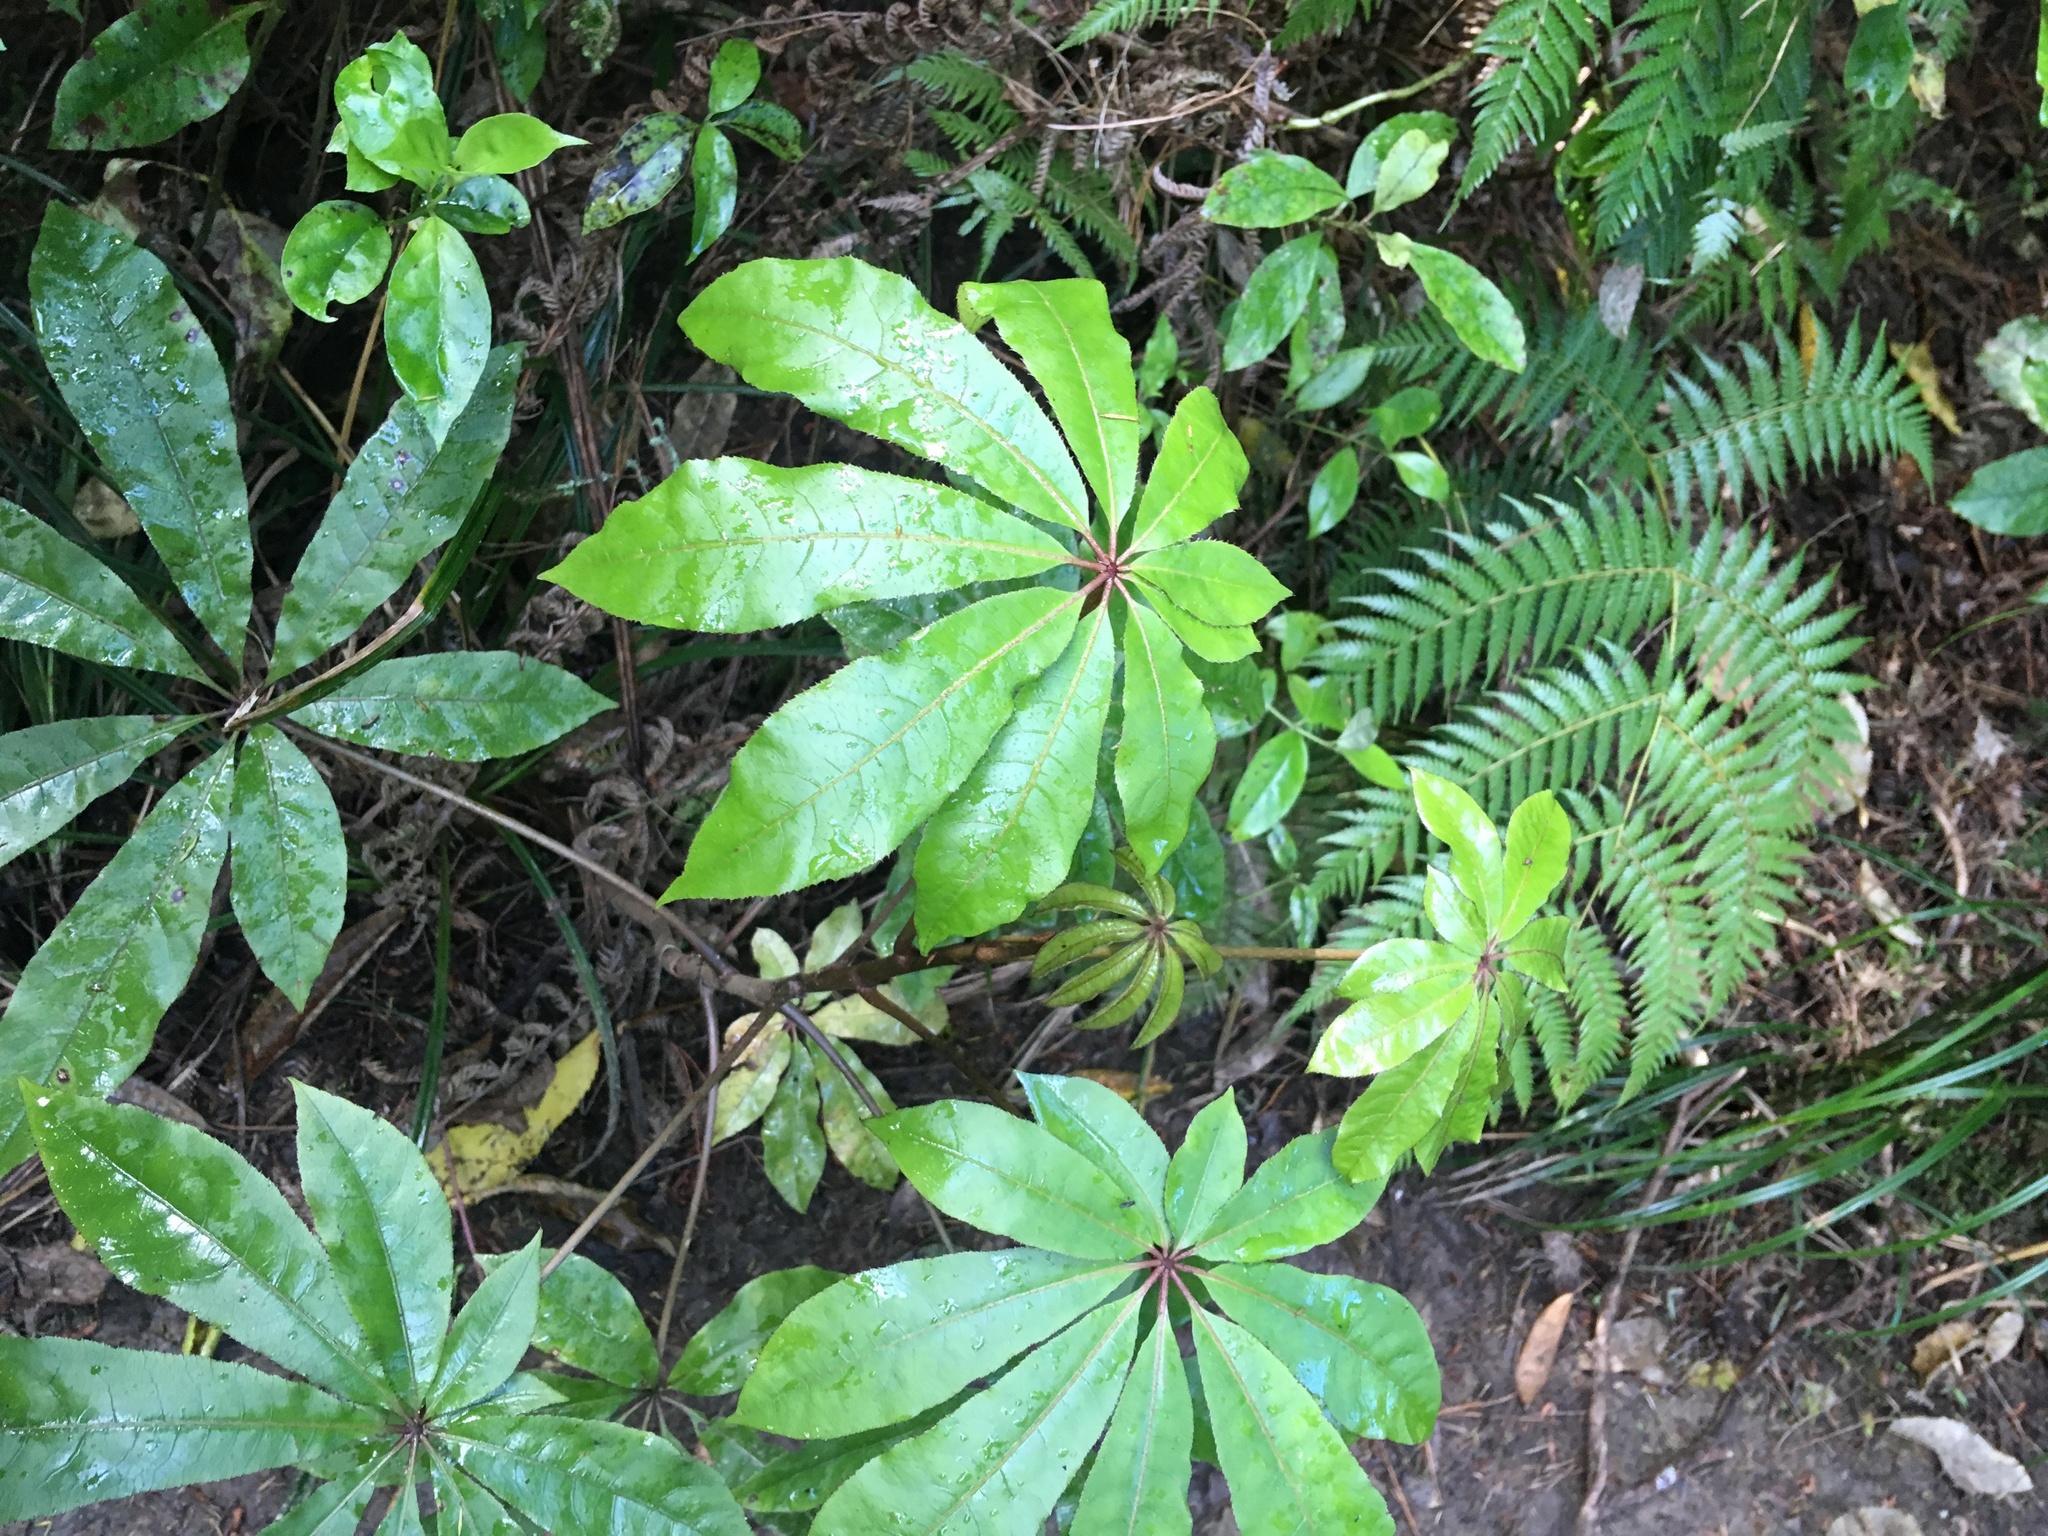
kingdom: Plantae
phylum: Tracheophyta
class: Magnoliopsida
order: Apiales
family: Araliaceae
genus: Schefflera
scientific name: Schefflera digitata
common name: Pate
